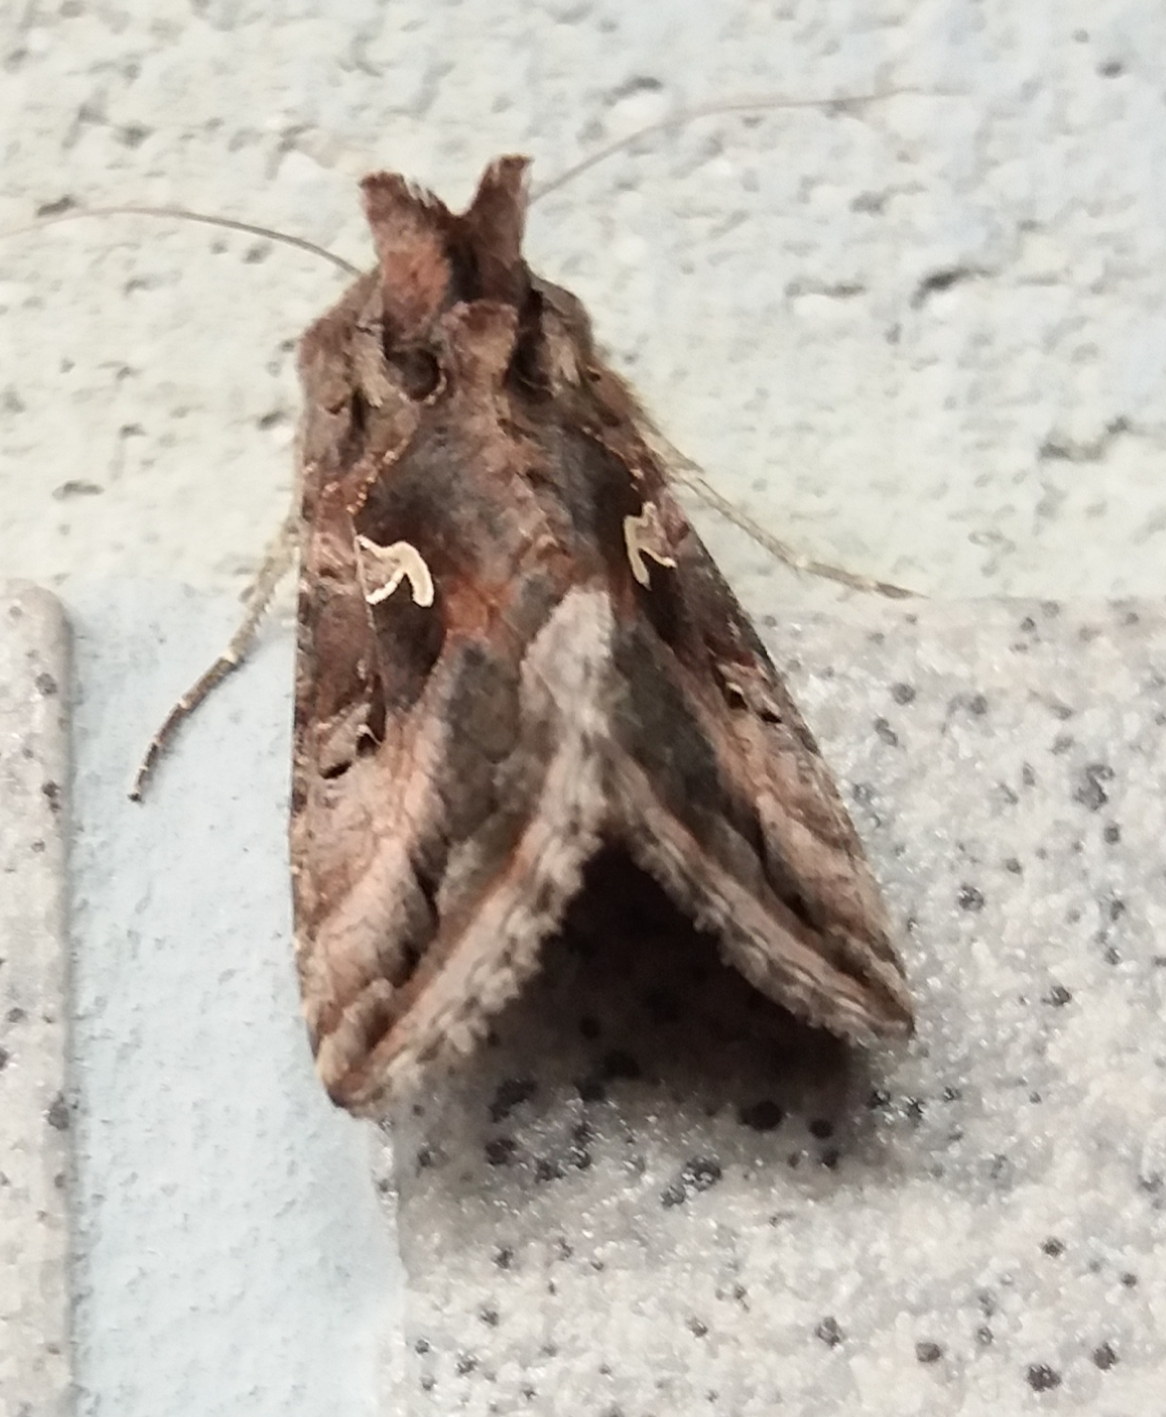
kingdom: Animalia
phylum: Arthropoda
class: Insecta
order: Lepidoptera
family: Noctuidae
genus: Autographa
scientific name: Autographa gamma
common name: Silver y
